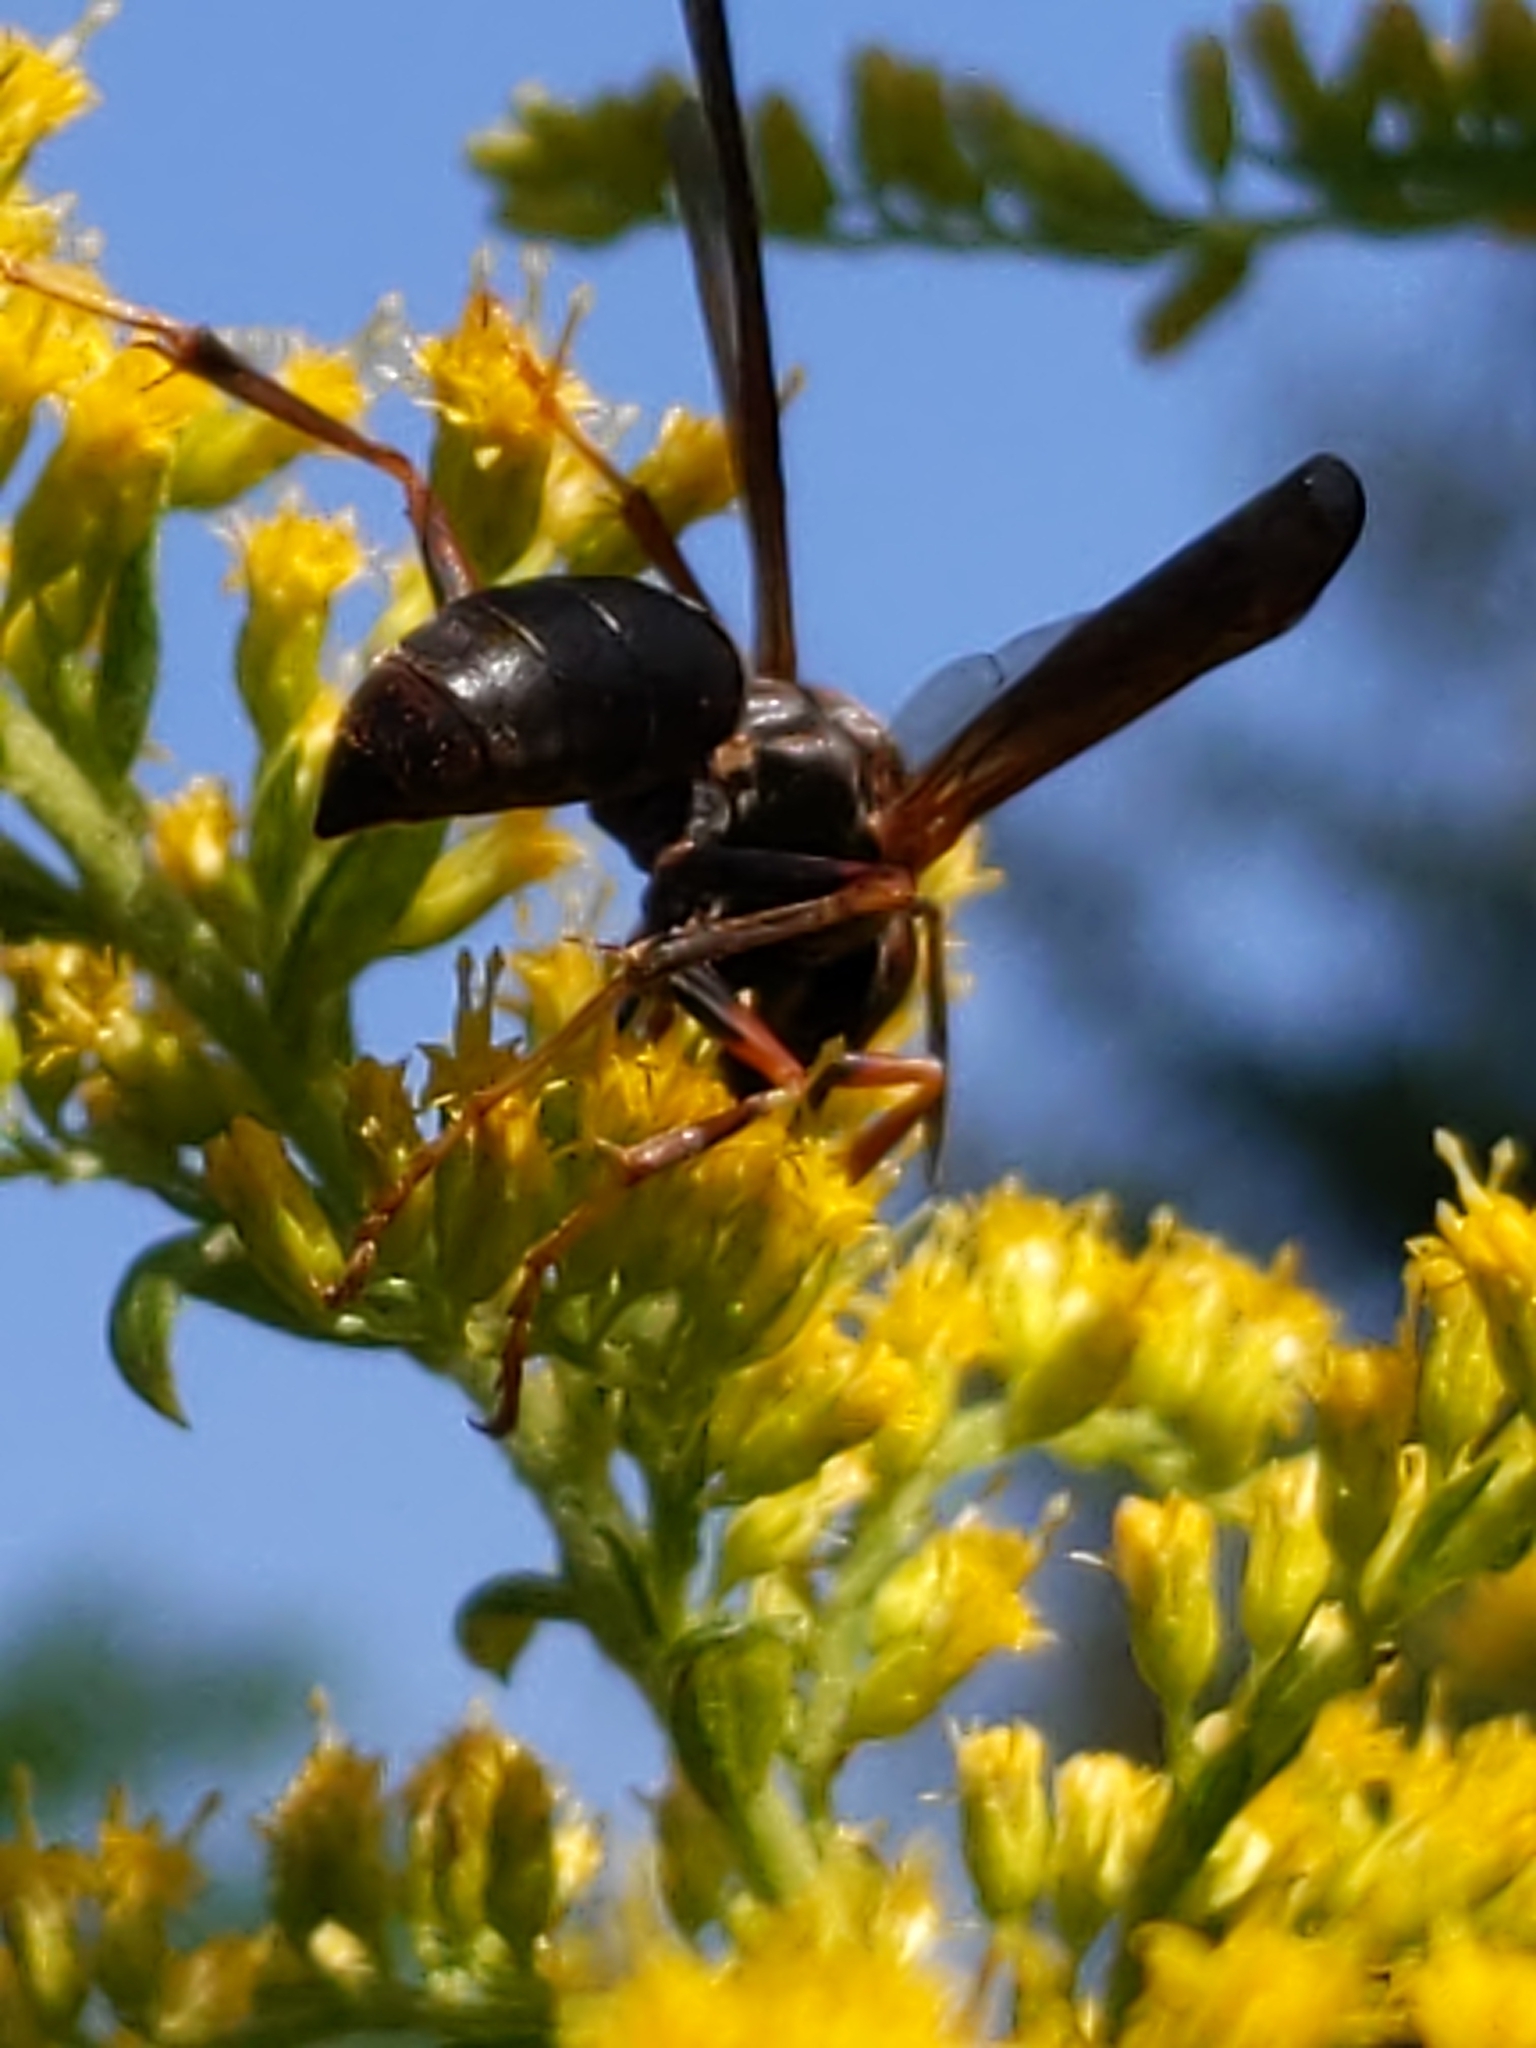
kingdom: Animalia
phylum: Arthropoda
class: Insecta
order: Hymenoptera
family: Vespidae
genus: Fuscopolistes
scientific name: Fuscopolistes
